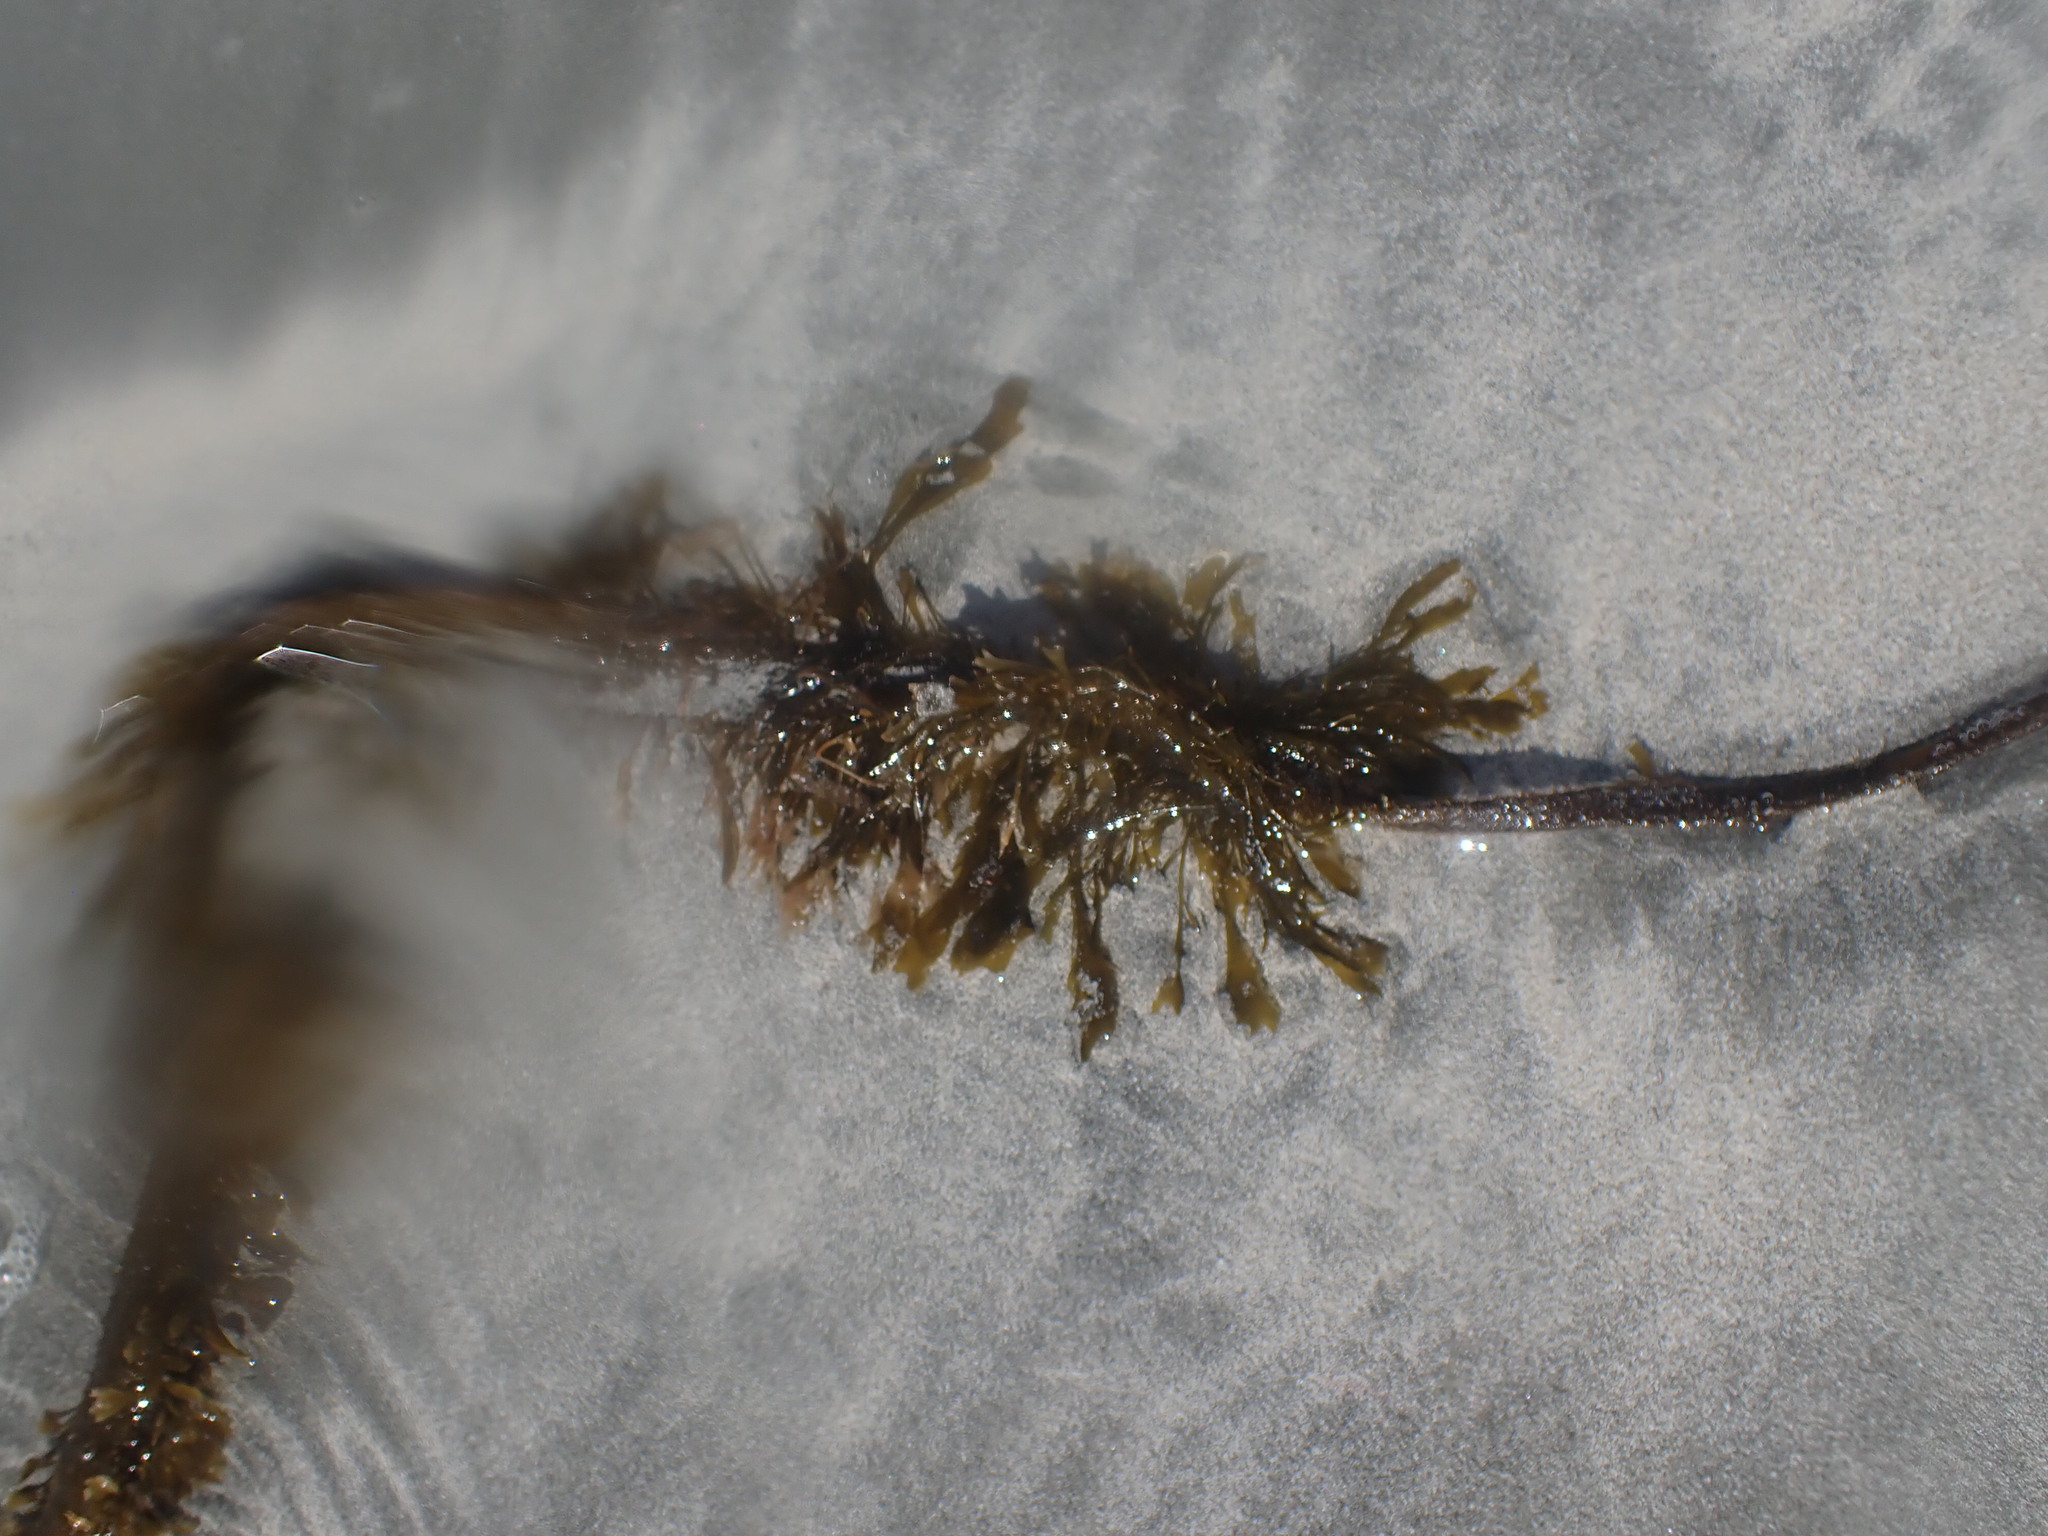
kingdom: Chromista
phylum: Ochrophyta
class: Phaeophyceae
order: Laminariales
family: Lessoniaceae
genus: Egregia
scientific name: Egregia menziesii
